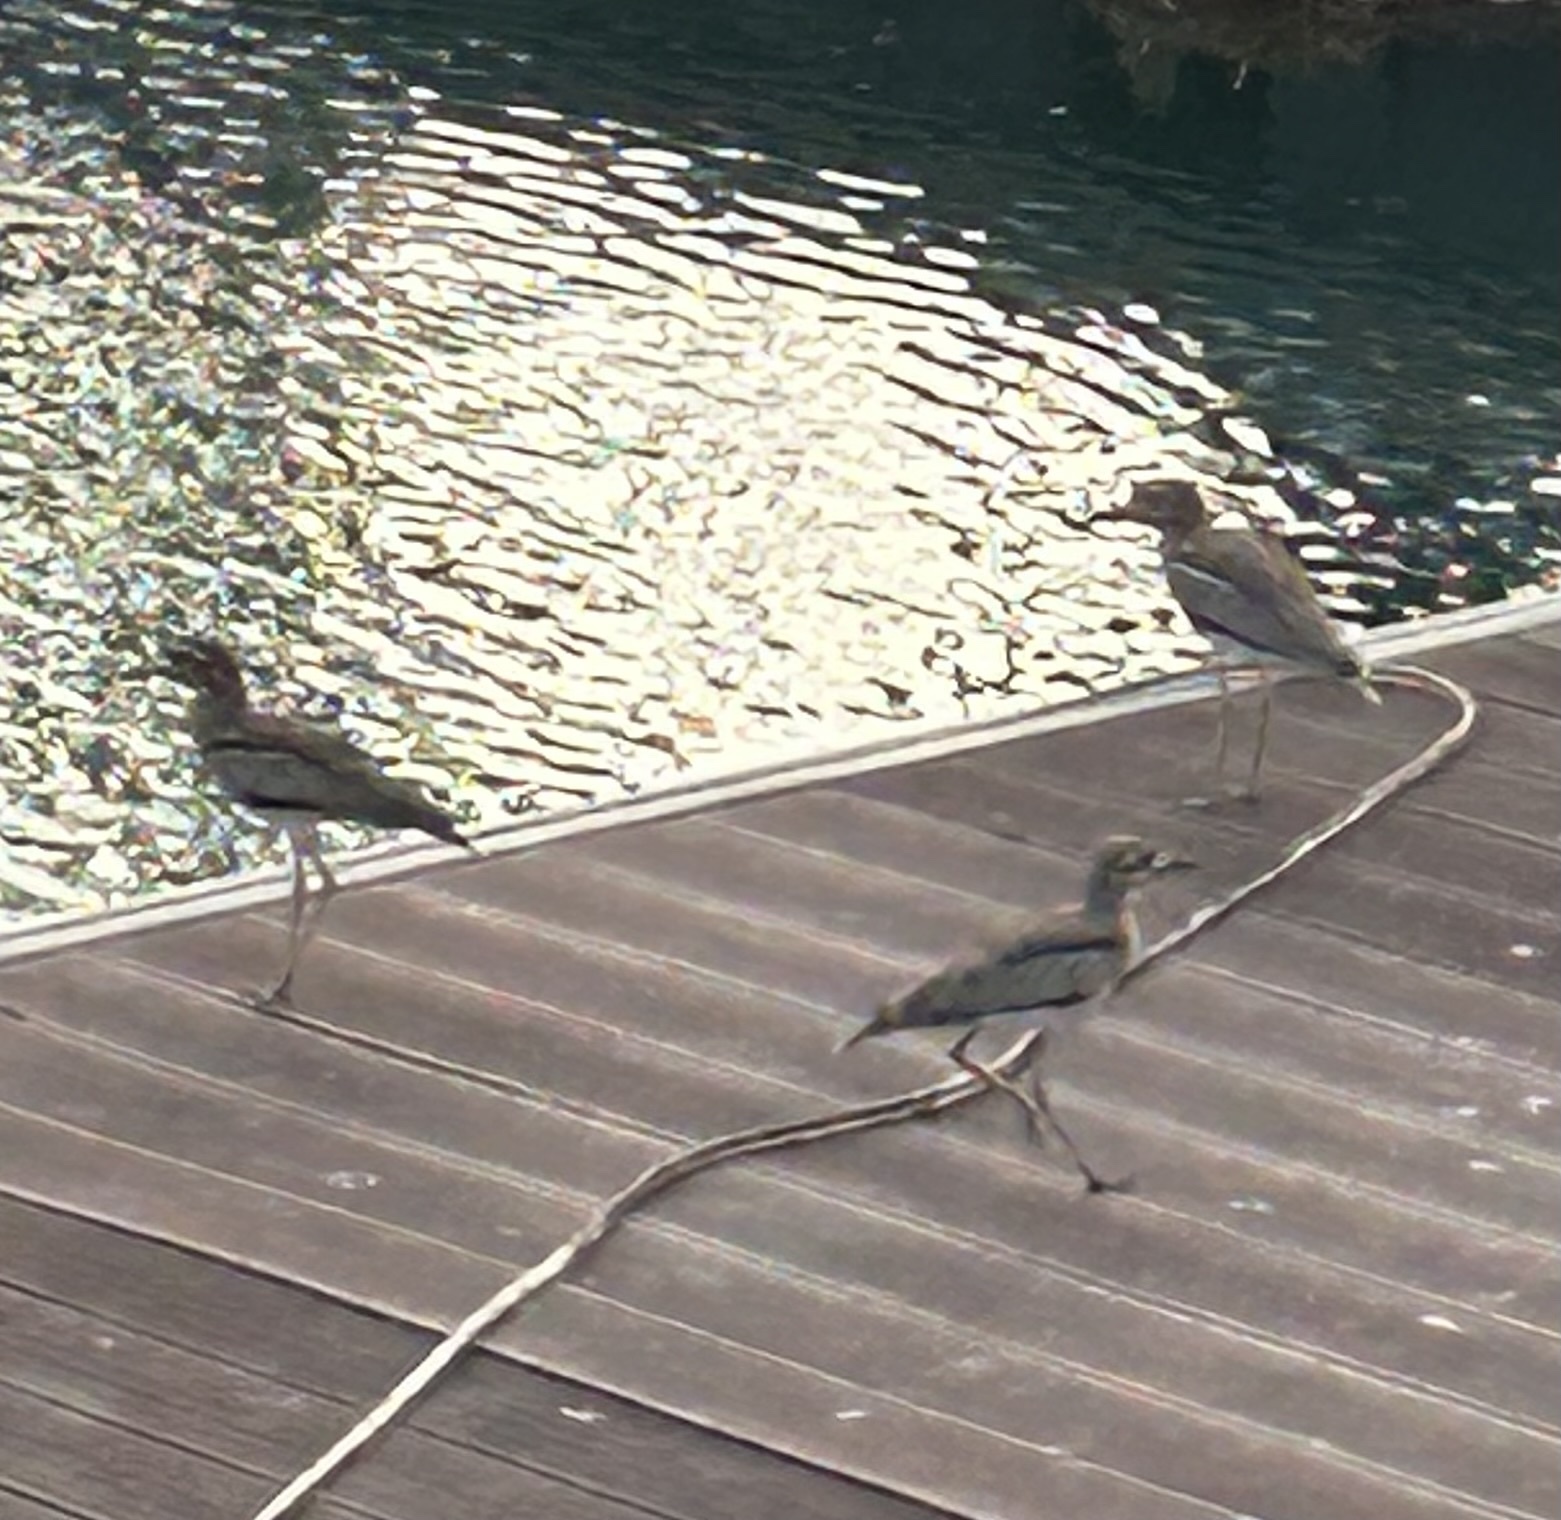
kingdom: Animalia
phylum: Chordata
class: Aves
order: Charadriiformes
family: Burhinidae
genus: Burhinus
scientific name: Burhinus vermiculatus
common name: Water thick-knee
